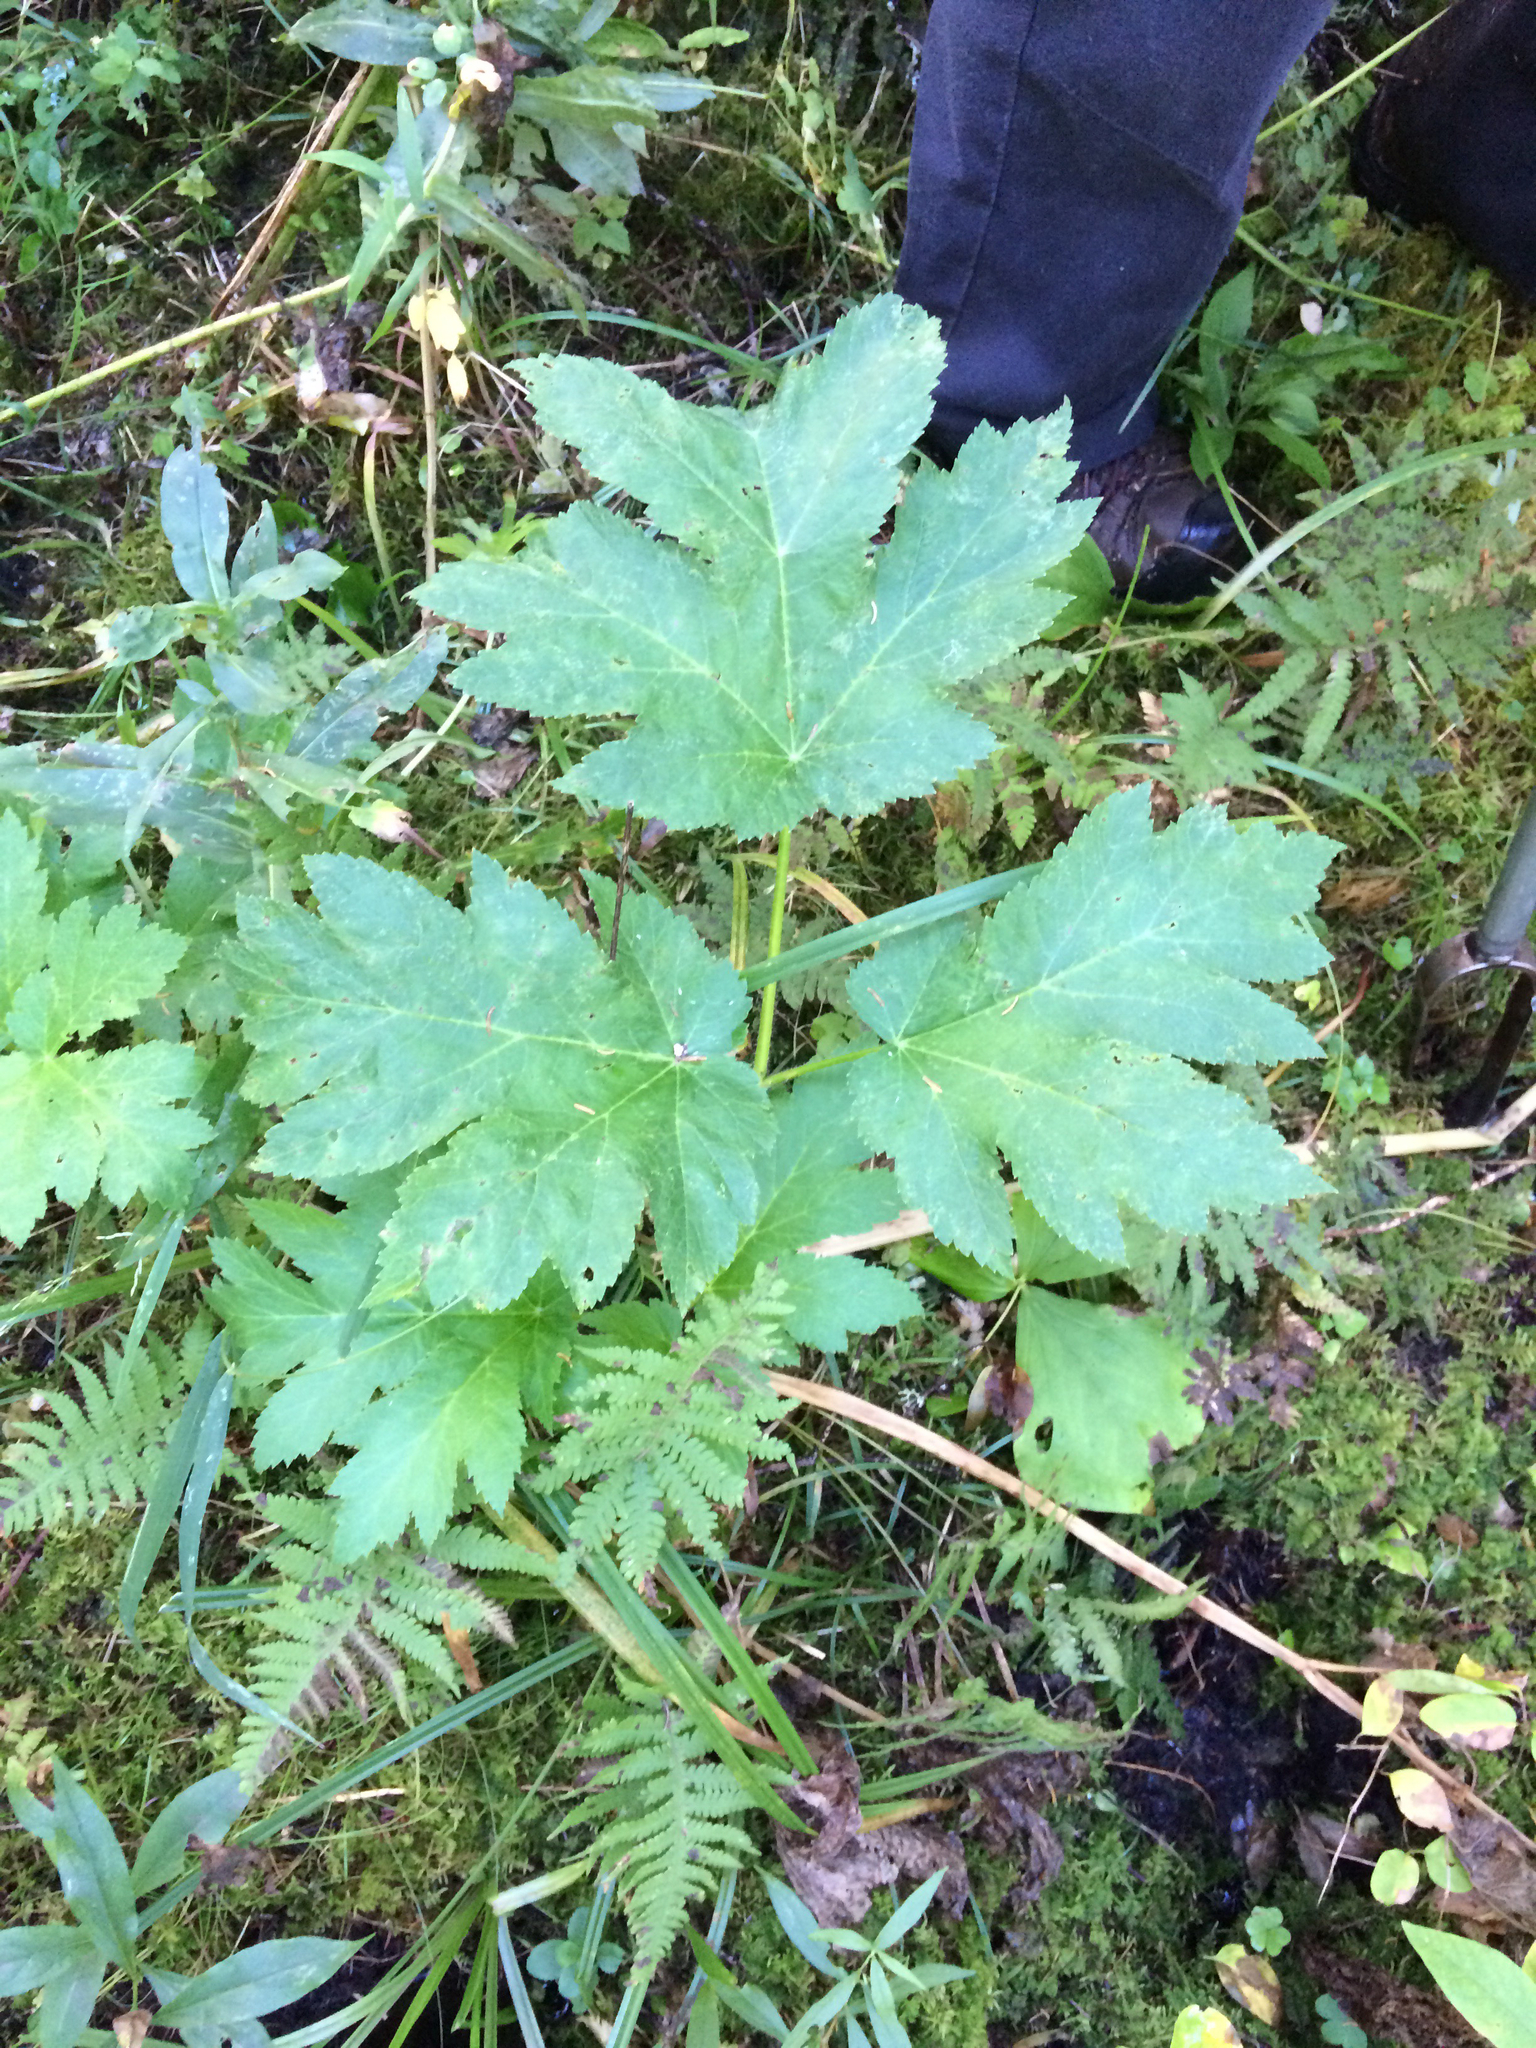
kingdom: Plantae
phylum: Tracheophyta
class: Magnoliopsida
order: Apiales
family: Apiaceae
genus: Heracleum
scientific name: Heracleum maximum
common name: American cow parsnip
